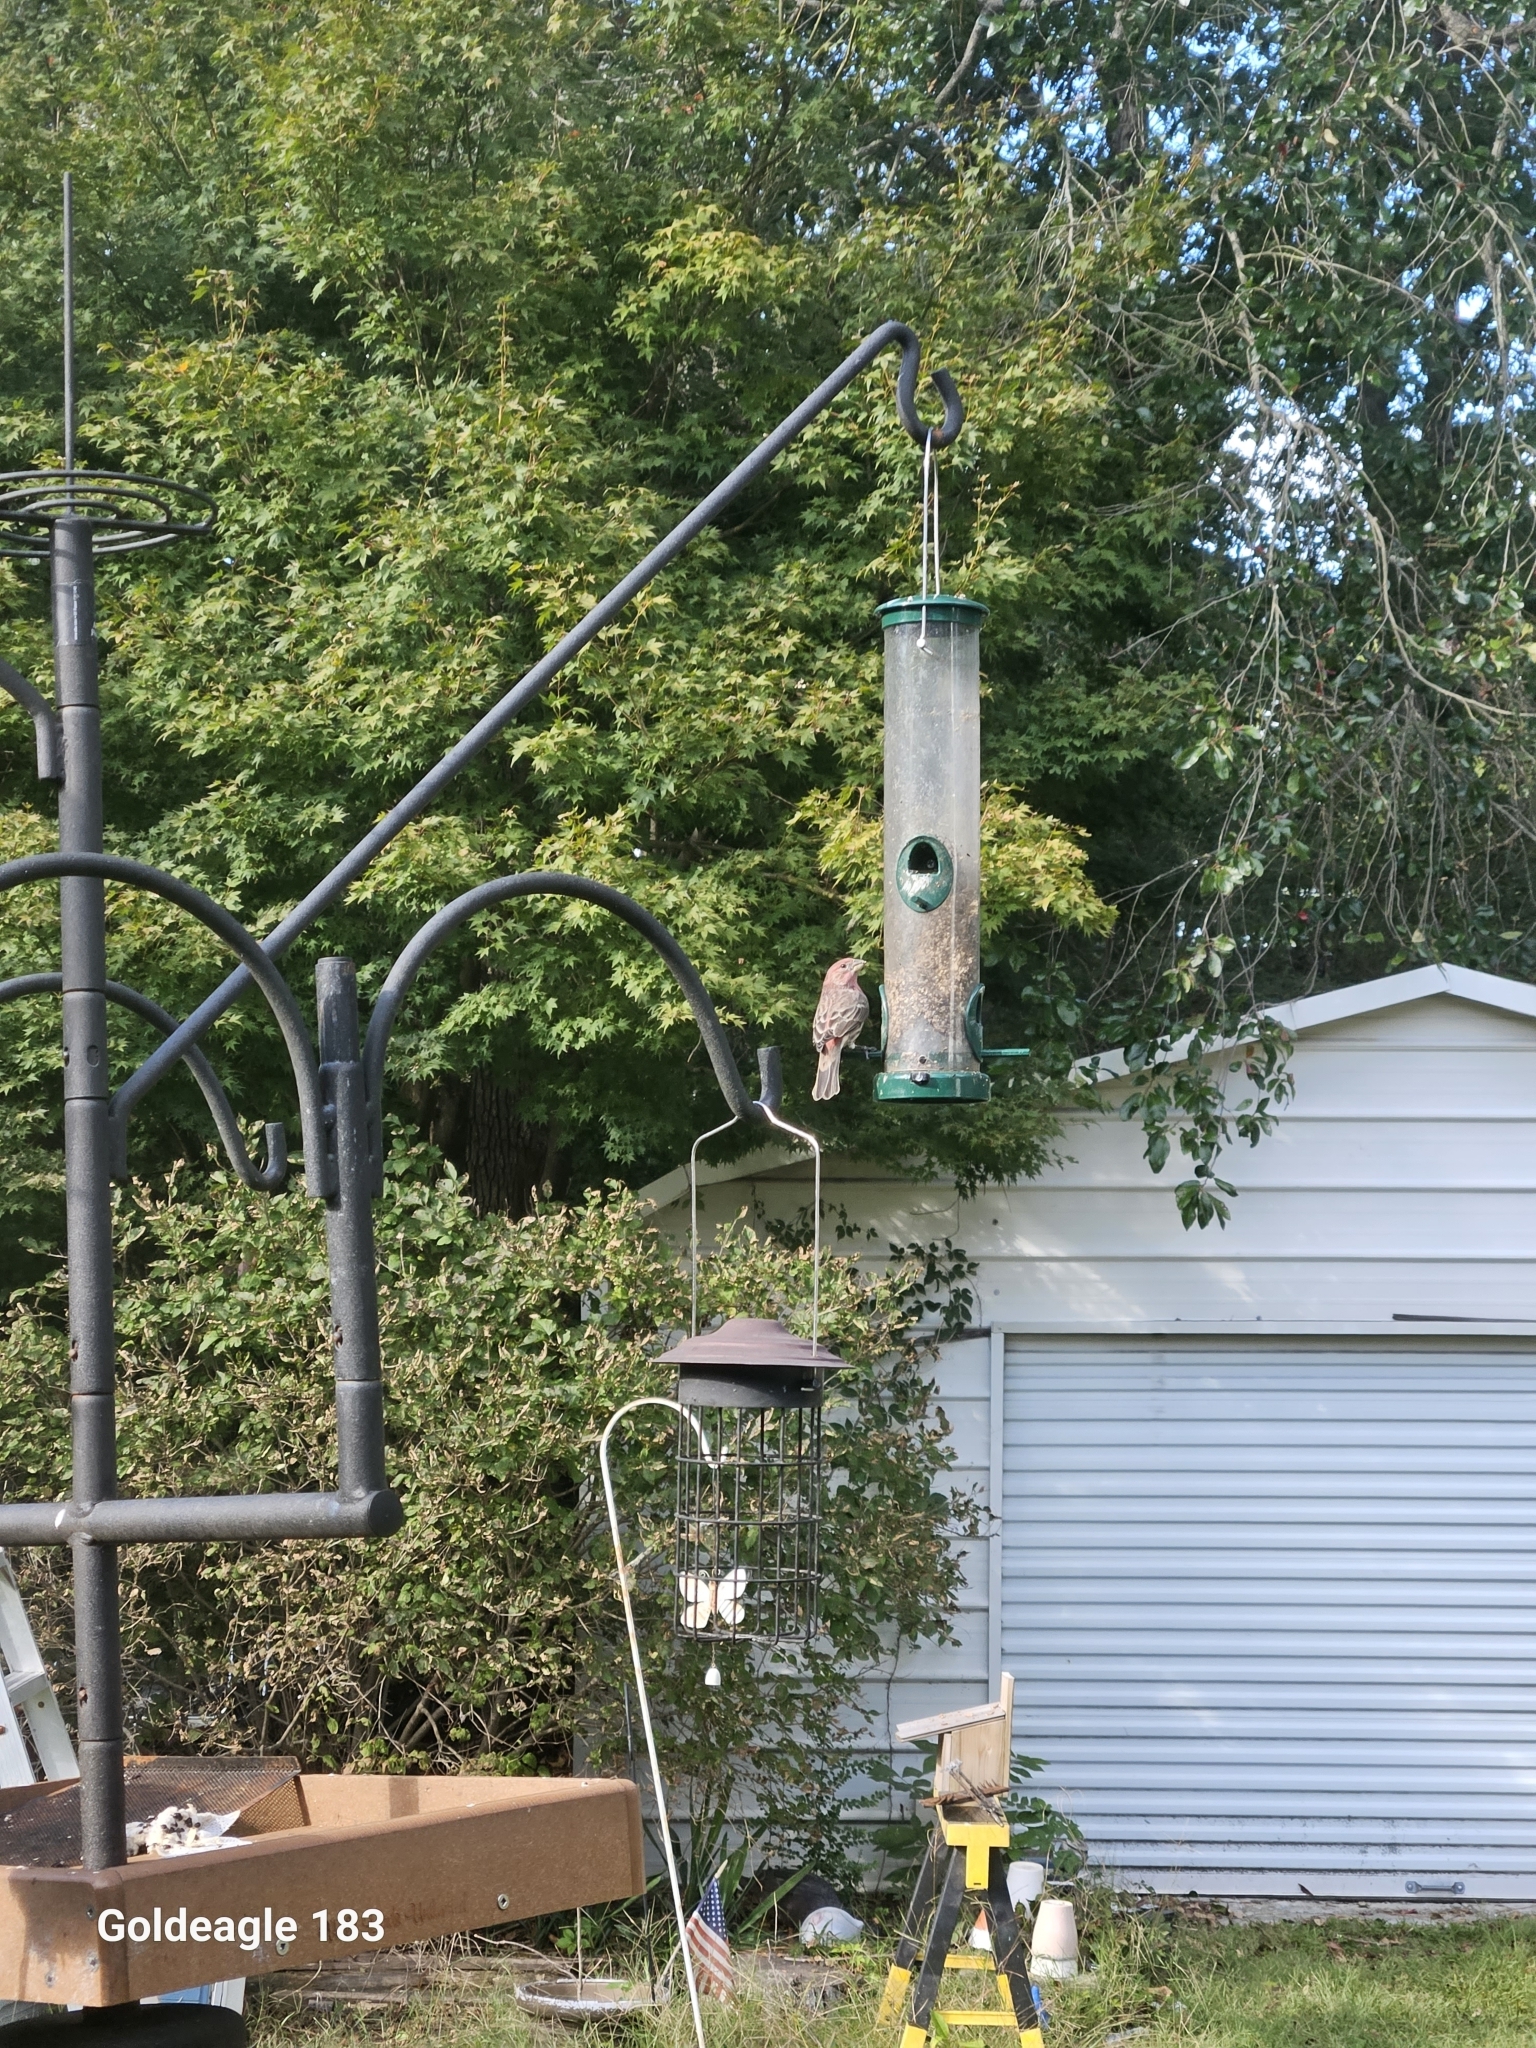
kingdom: Animalia
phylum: Chordata
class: Aves
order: Passeriformes
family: Fringillidae
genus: Haemorhous
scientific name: Haemorhous mexicanus
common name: House finch
